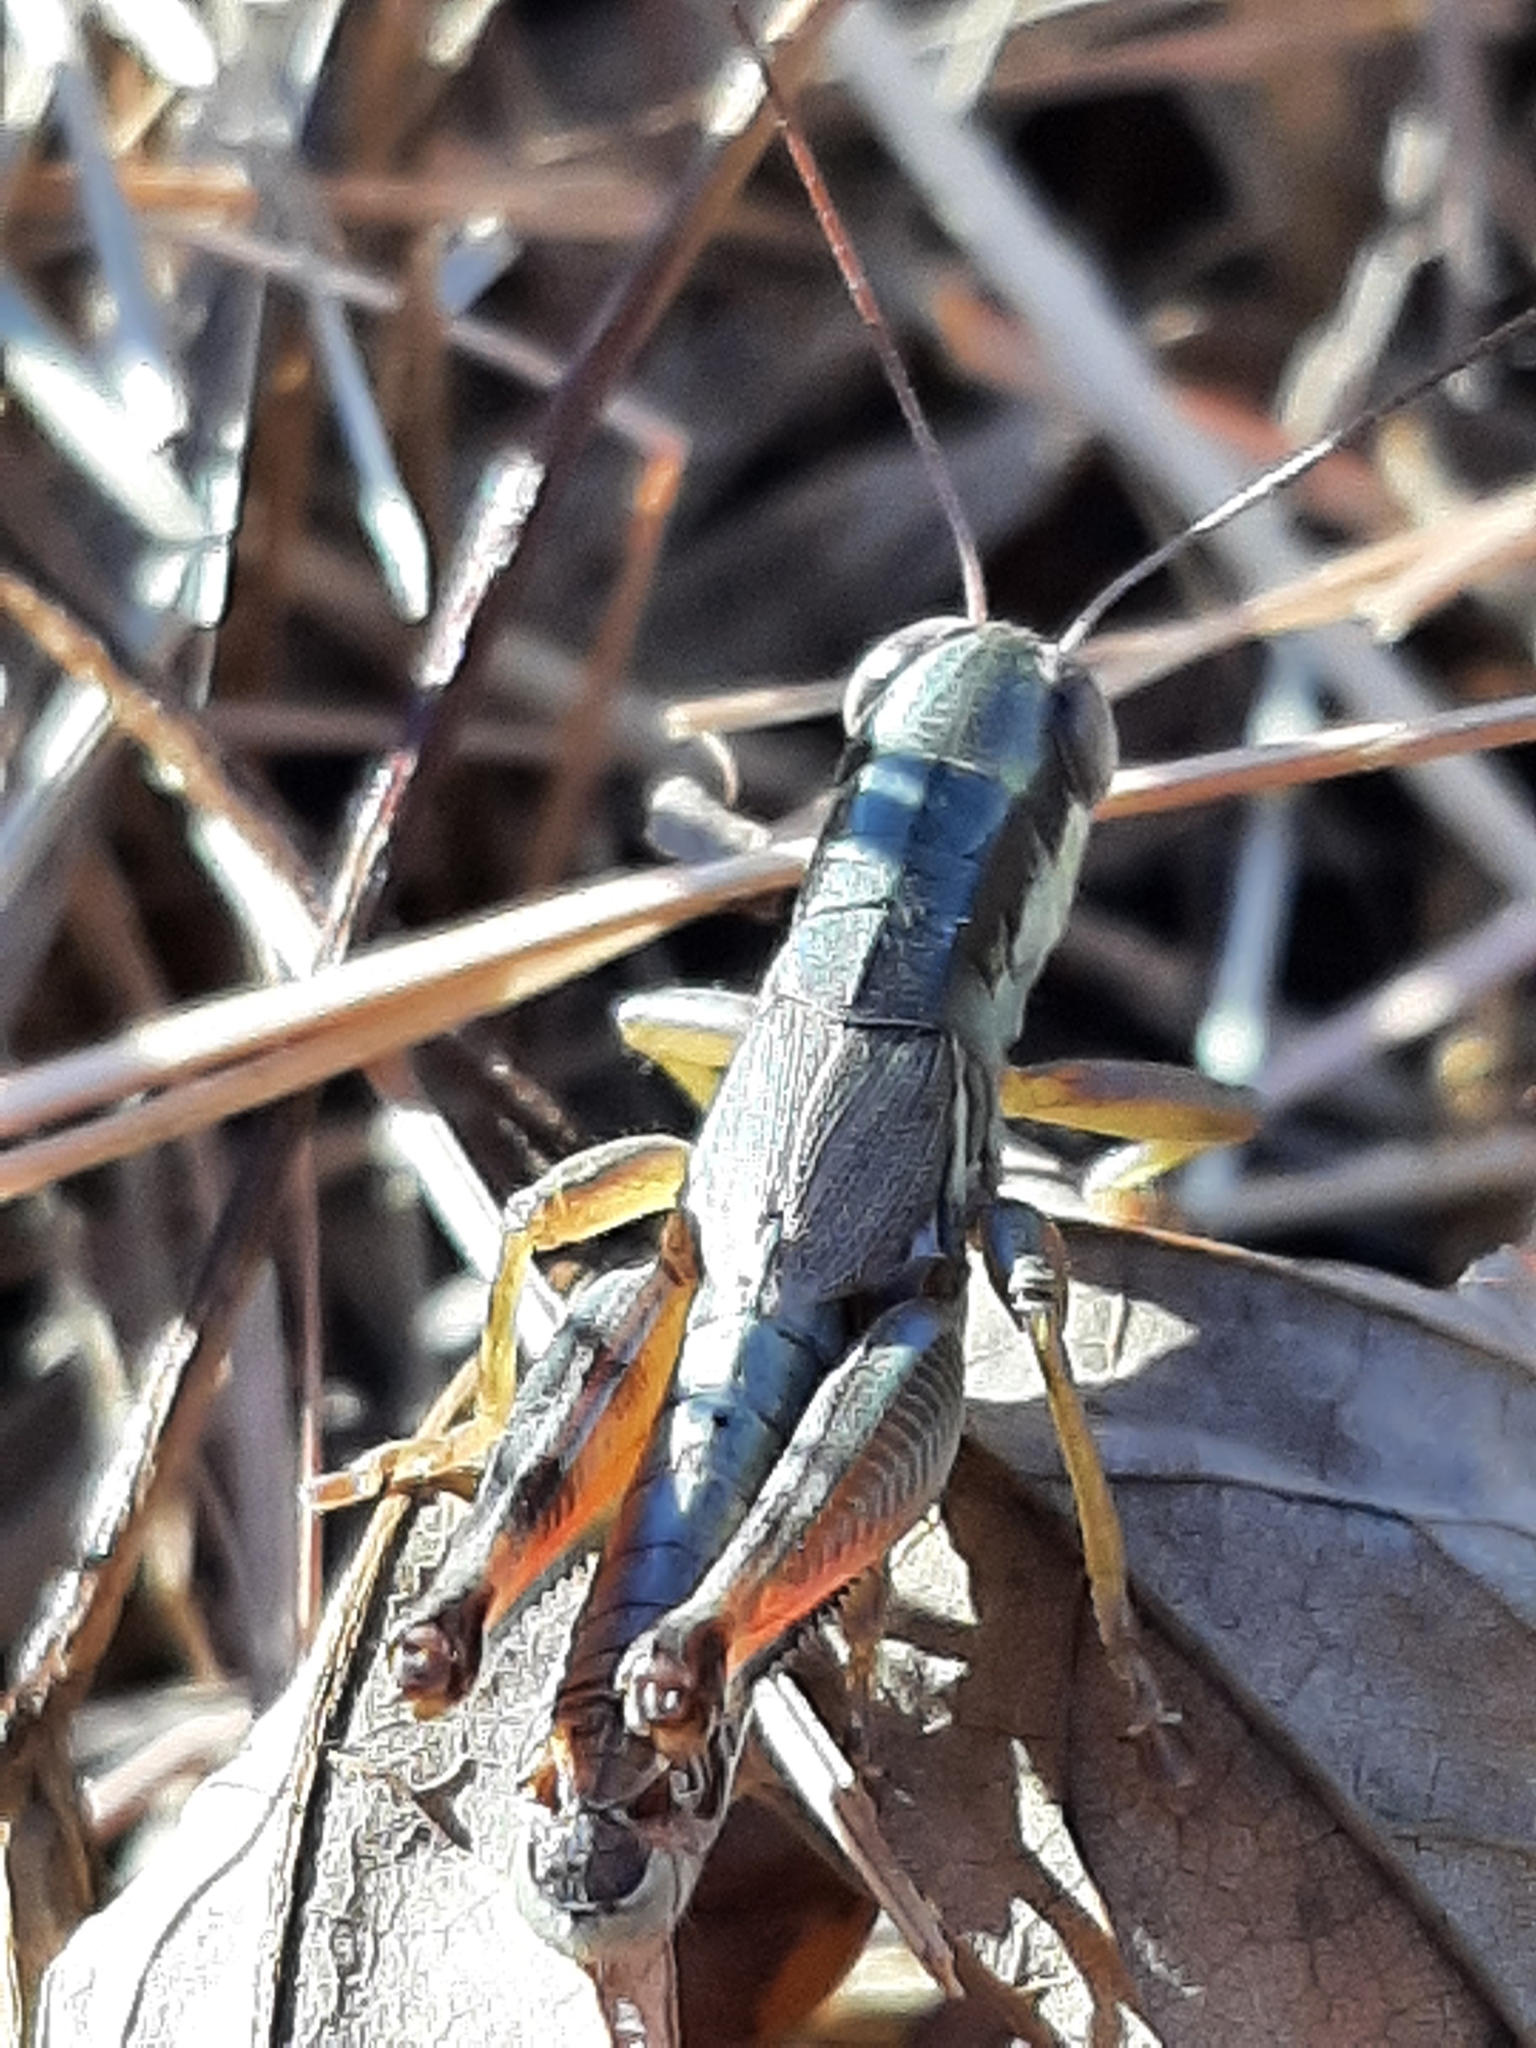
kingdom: Animalia
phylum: Arthropoda
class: Insecta
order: Orthoptera
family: Acrididae
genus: Phoetaliotes
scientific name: Phoetaliotes nebrascensis
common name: Large-headed grasshopper
